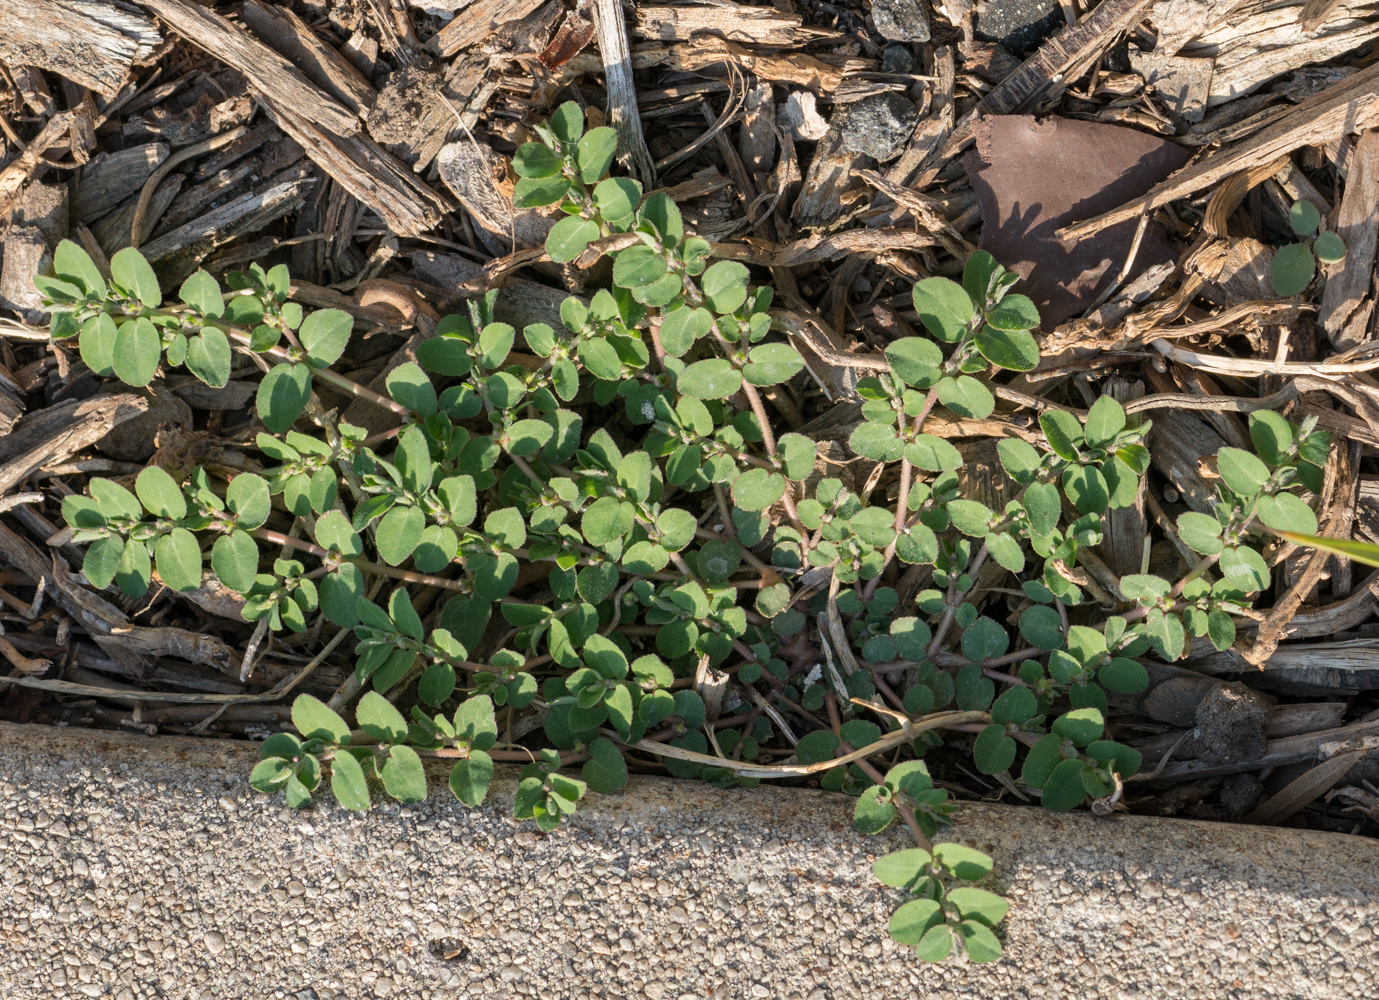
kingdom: Plantae
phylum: Tracheophyta
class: Magnoliopsida
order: Malpighiales
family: Euphorbiaceae
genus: Euphorbia
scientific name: Euphorbia prostrata
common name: Prostrate sandmat
